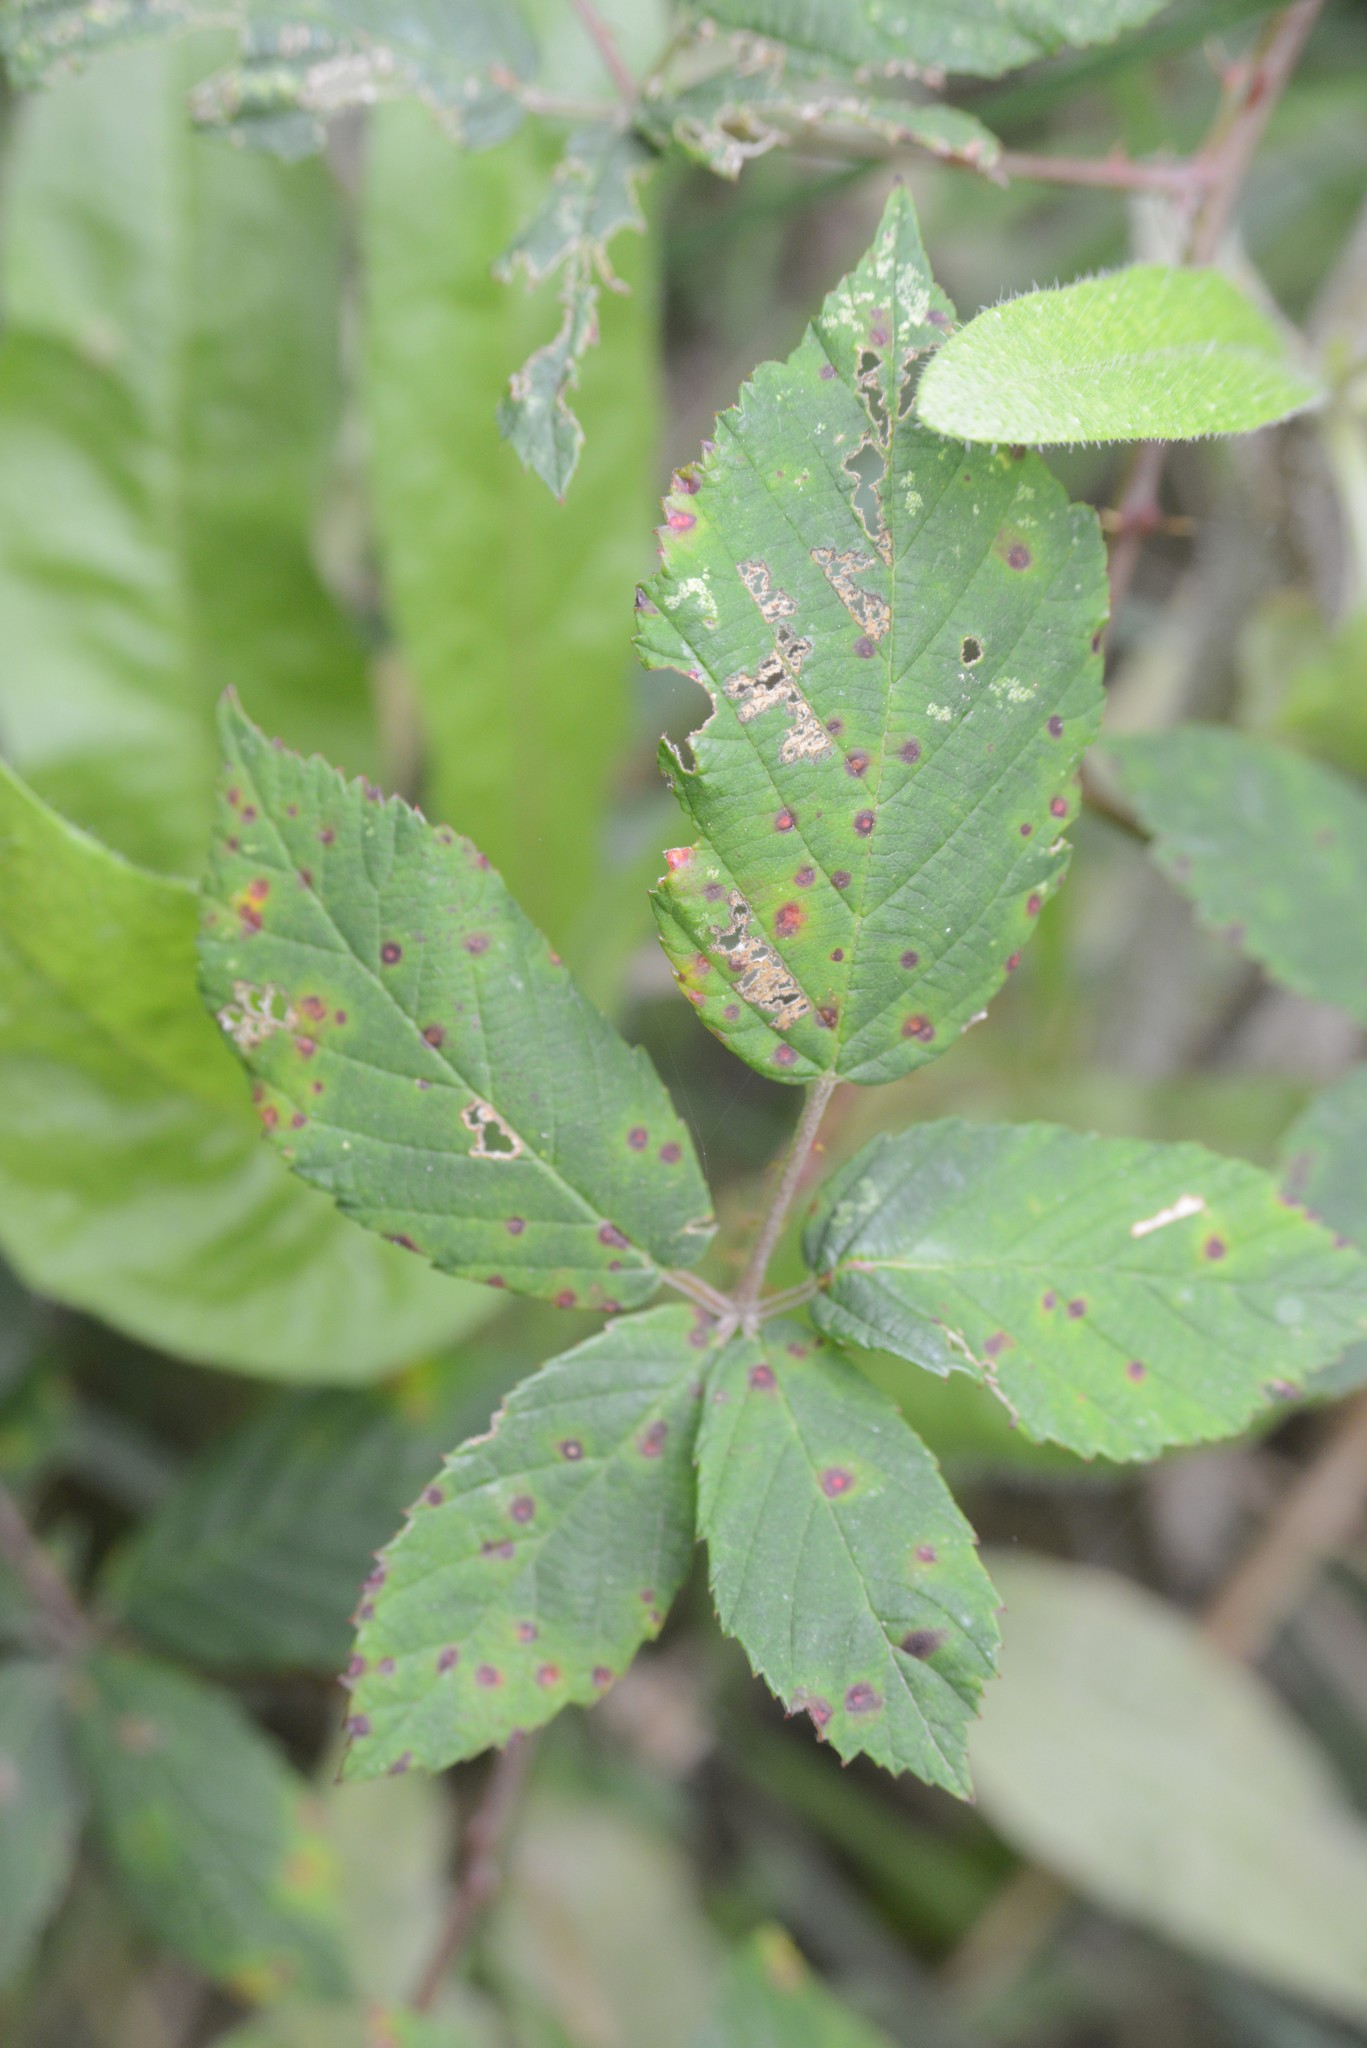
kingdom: Fungi
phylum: Basidiomycota
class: Pucciniomycetes
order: Pucciniales
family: Phragmidiaceae
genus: Phragmidium
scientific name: Phragmidium violaceum
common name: Violet bramble rust
